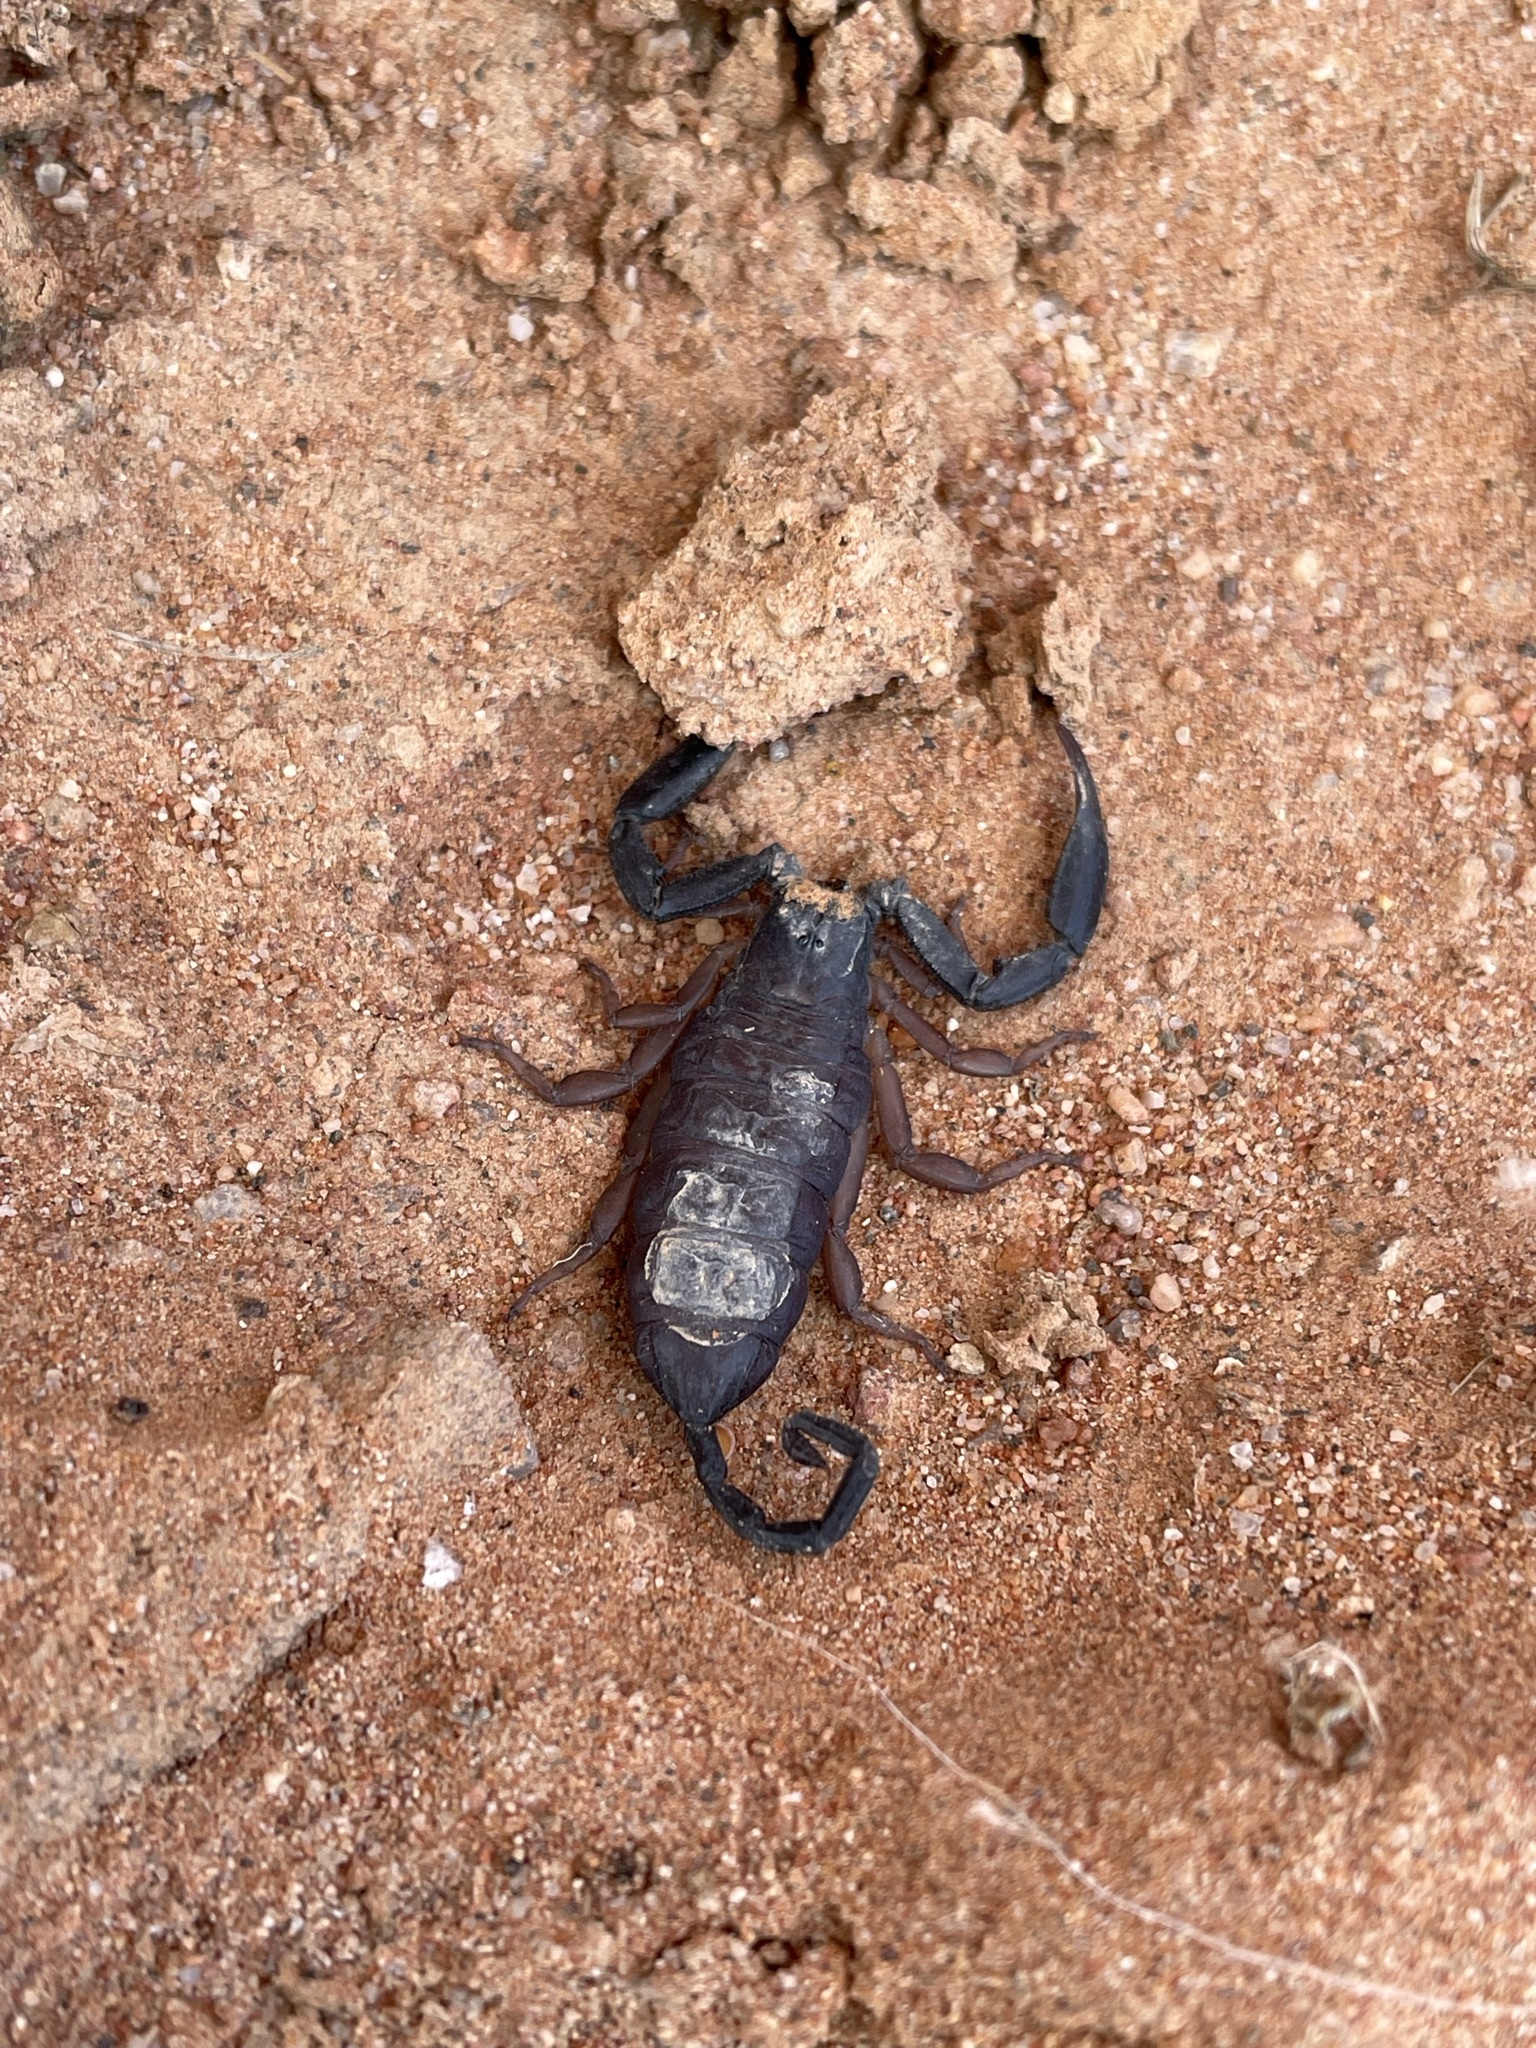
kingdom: Animalia
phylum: Arthropoda
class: Arachnida
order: Scorpiones
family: Hormuridae
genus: Hadogenes
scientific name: Hadogenes phyllodes
